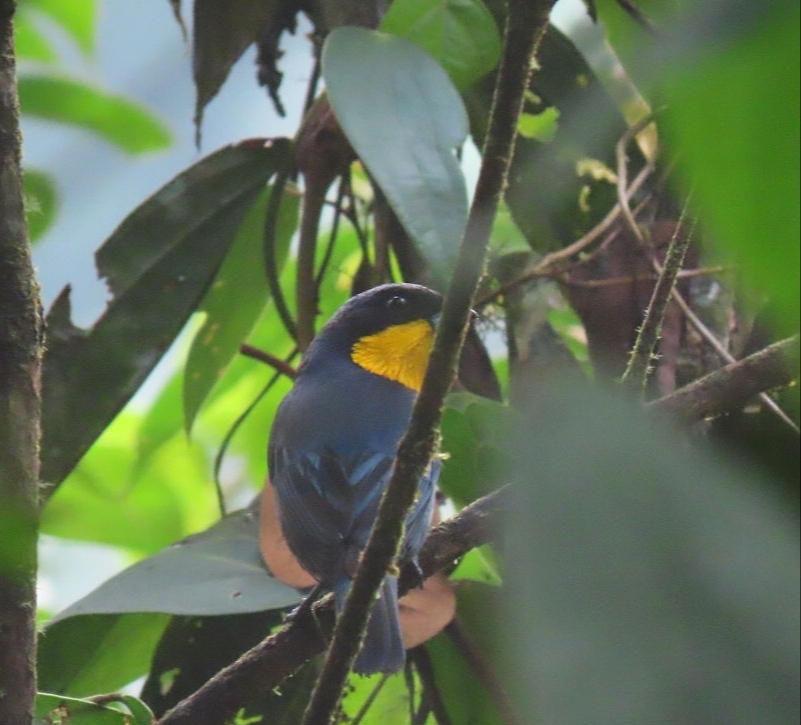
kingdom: Animalia
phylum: Chordata
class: Aves
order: Passeriformes
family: Thraupidae
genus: Iridosornis
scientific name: Iridosornis porphyrocephalus
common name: Purplish-mantled tanager
